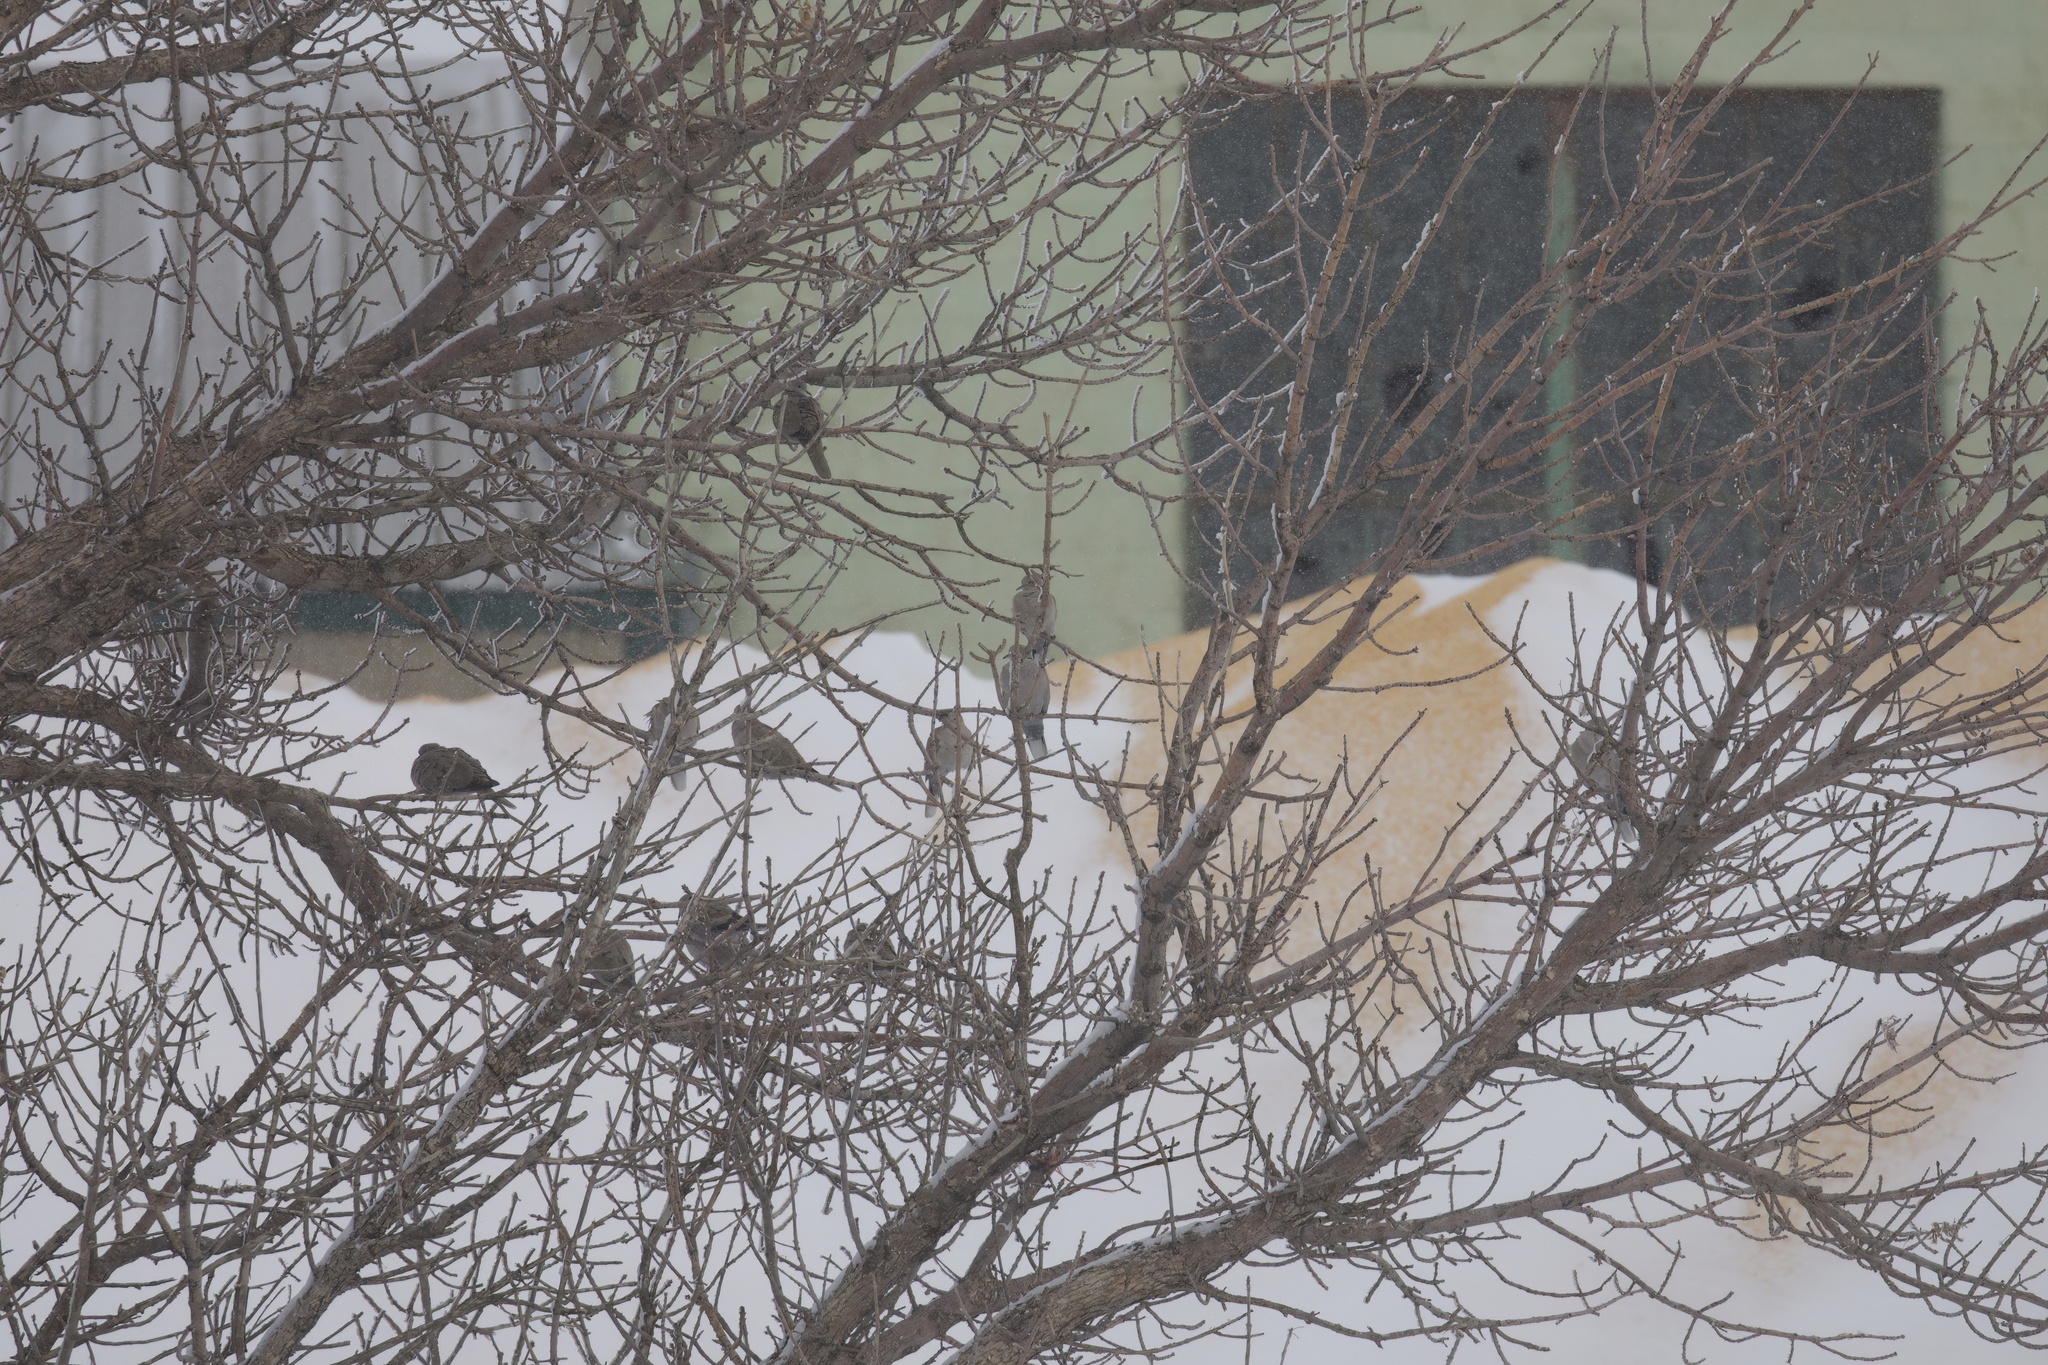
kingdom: Animalia
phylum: Chordata
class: Aves
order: Columbiformes
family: Columbidae
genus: Streptopelia
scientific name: Streptopelia decaocto
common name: Eurasian collared dove
